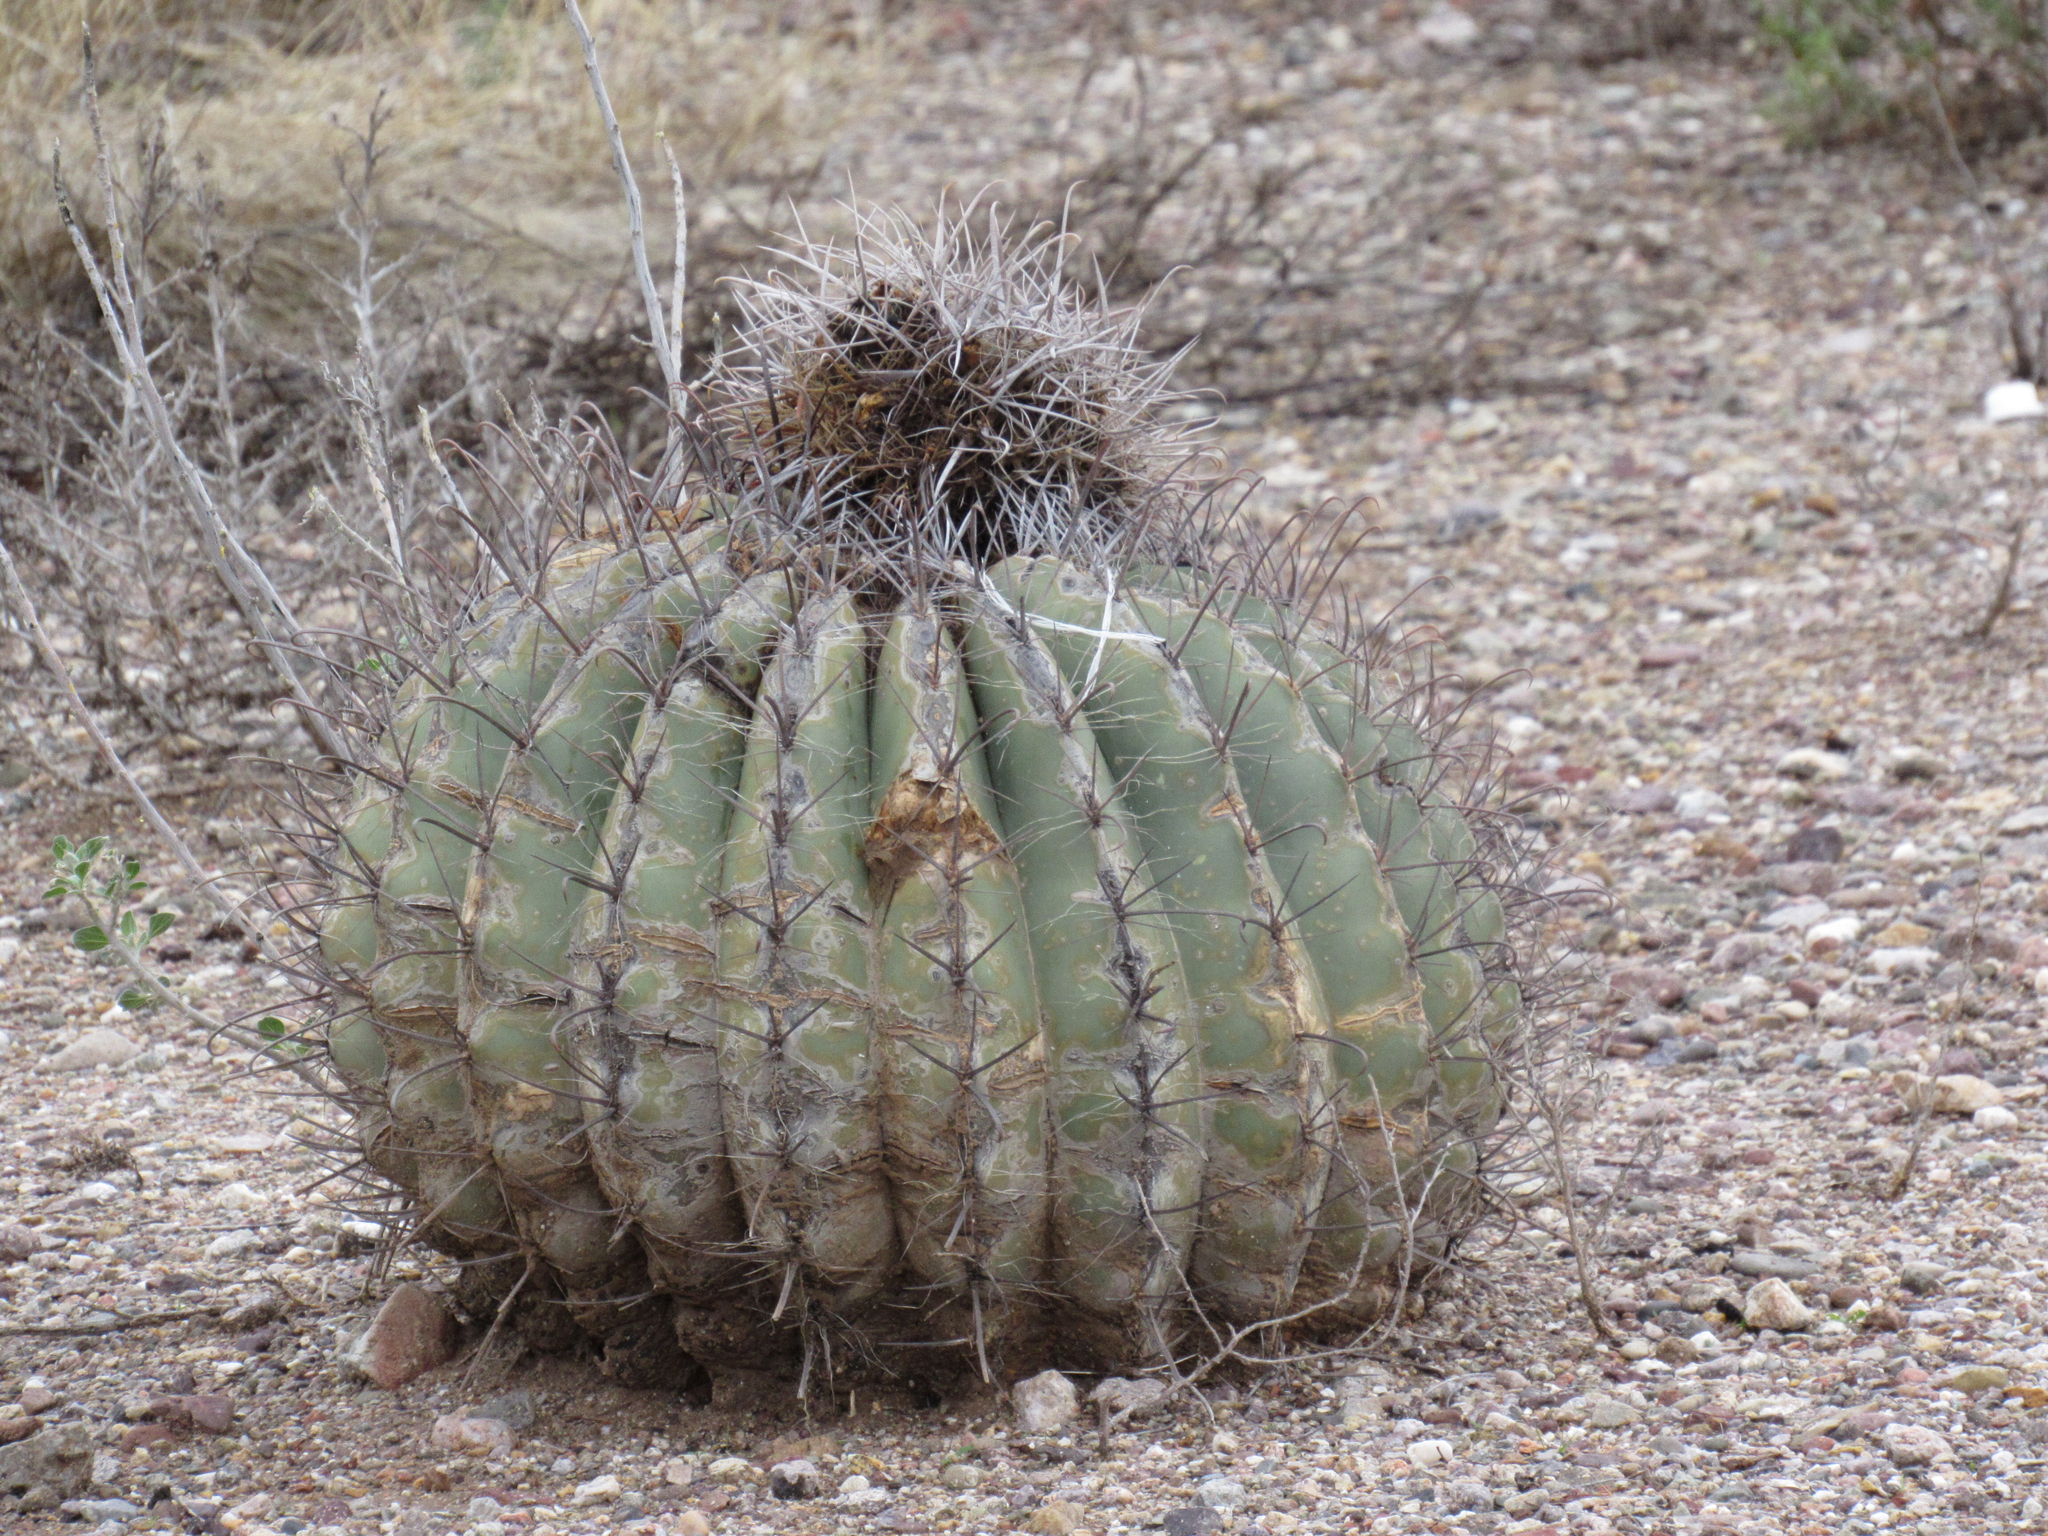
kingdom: Plantae
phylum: Tracheophyta
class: Magnoliopsida
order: Caryophyllales
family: Cactaceae
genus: Ferocactus
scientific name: Ferocactus wislizeni
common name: Candy barrel cactus
